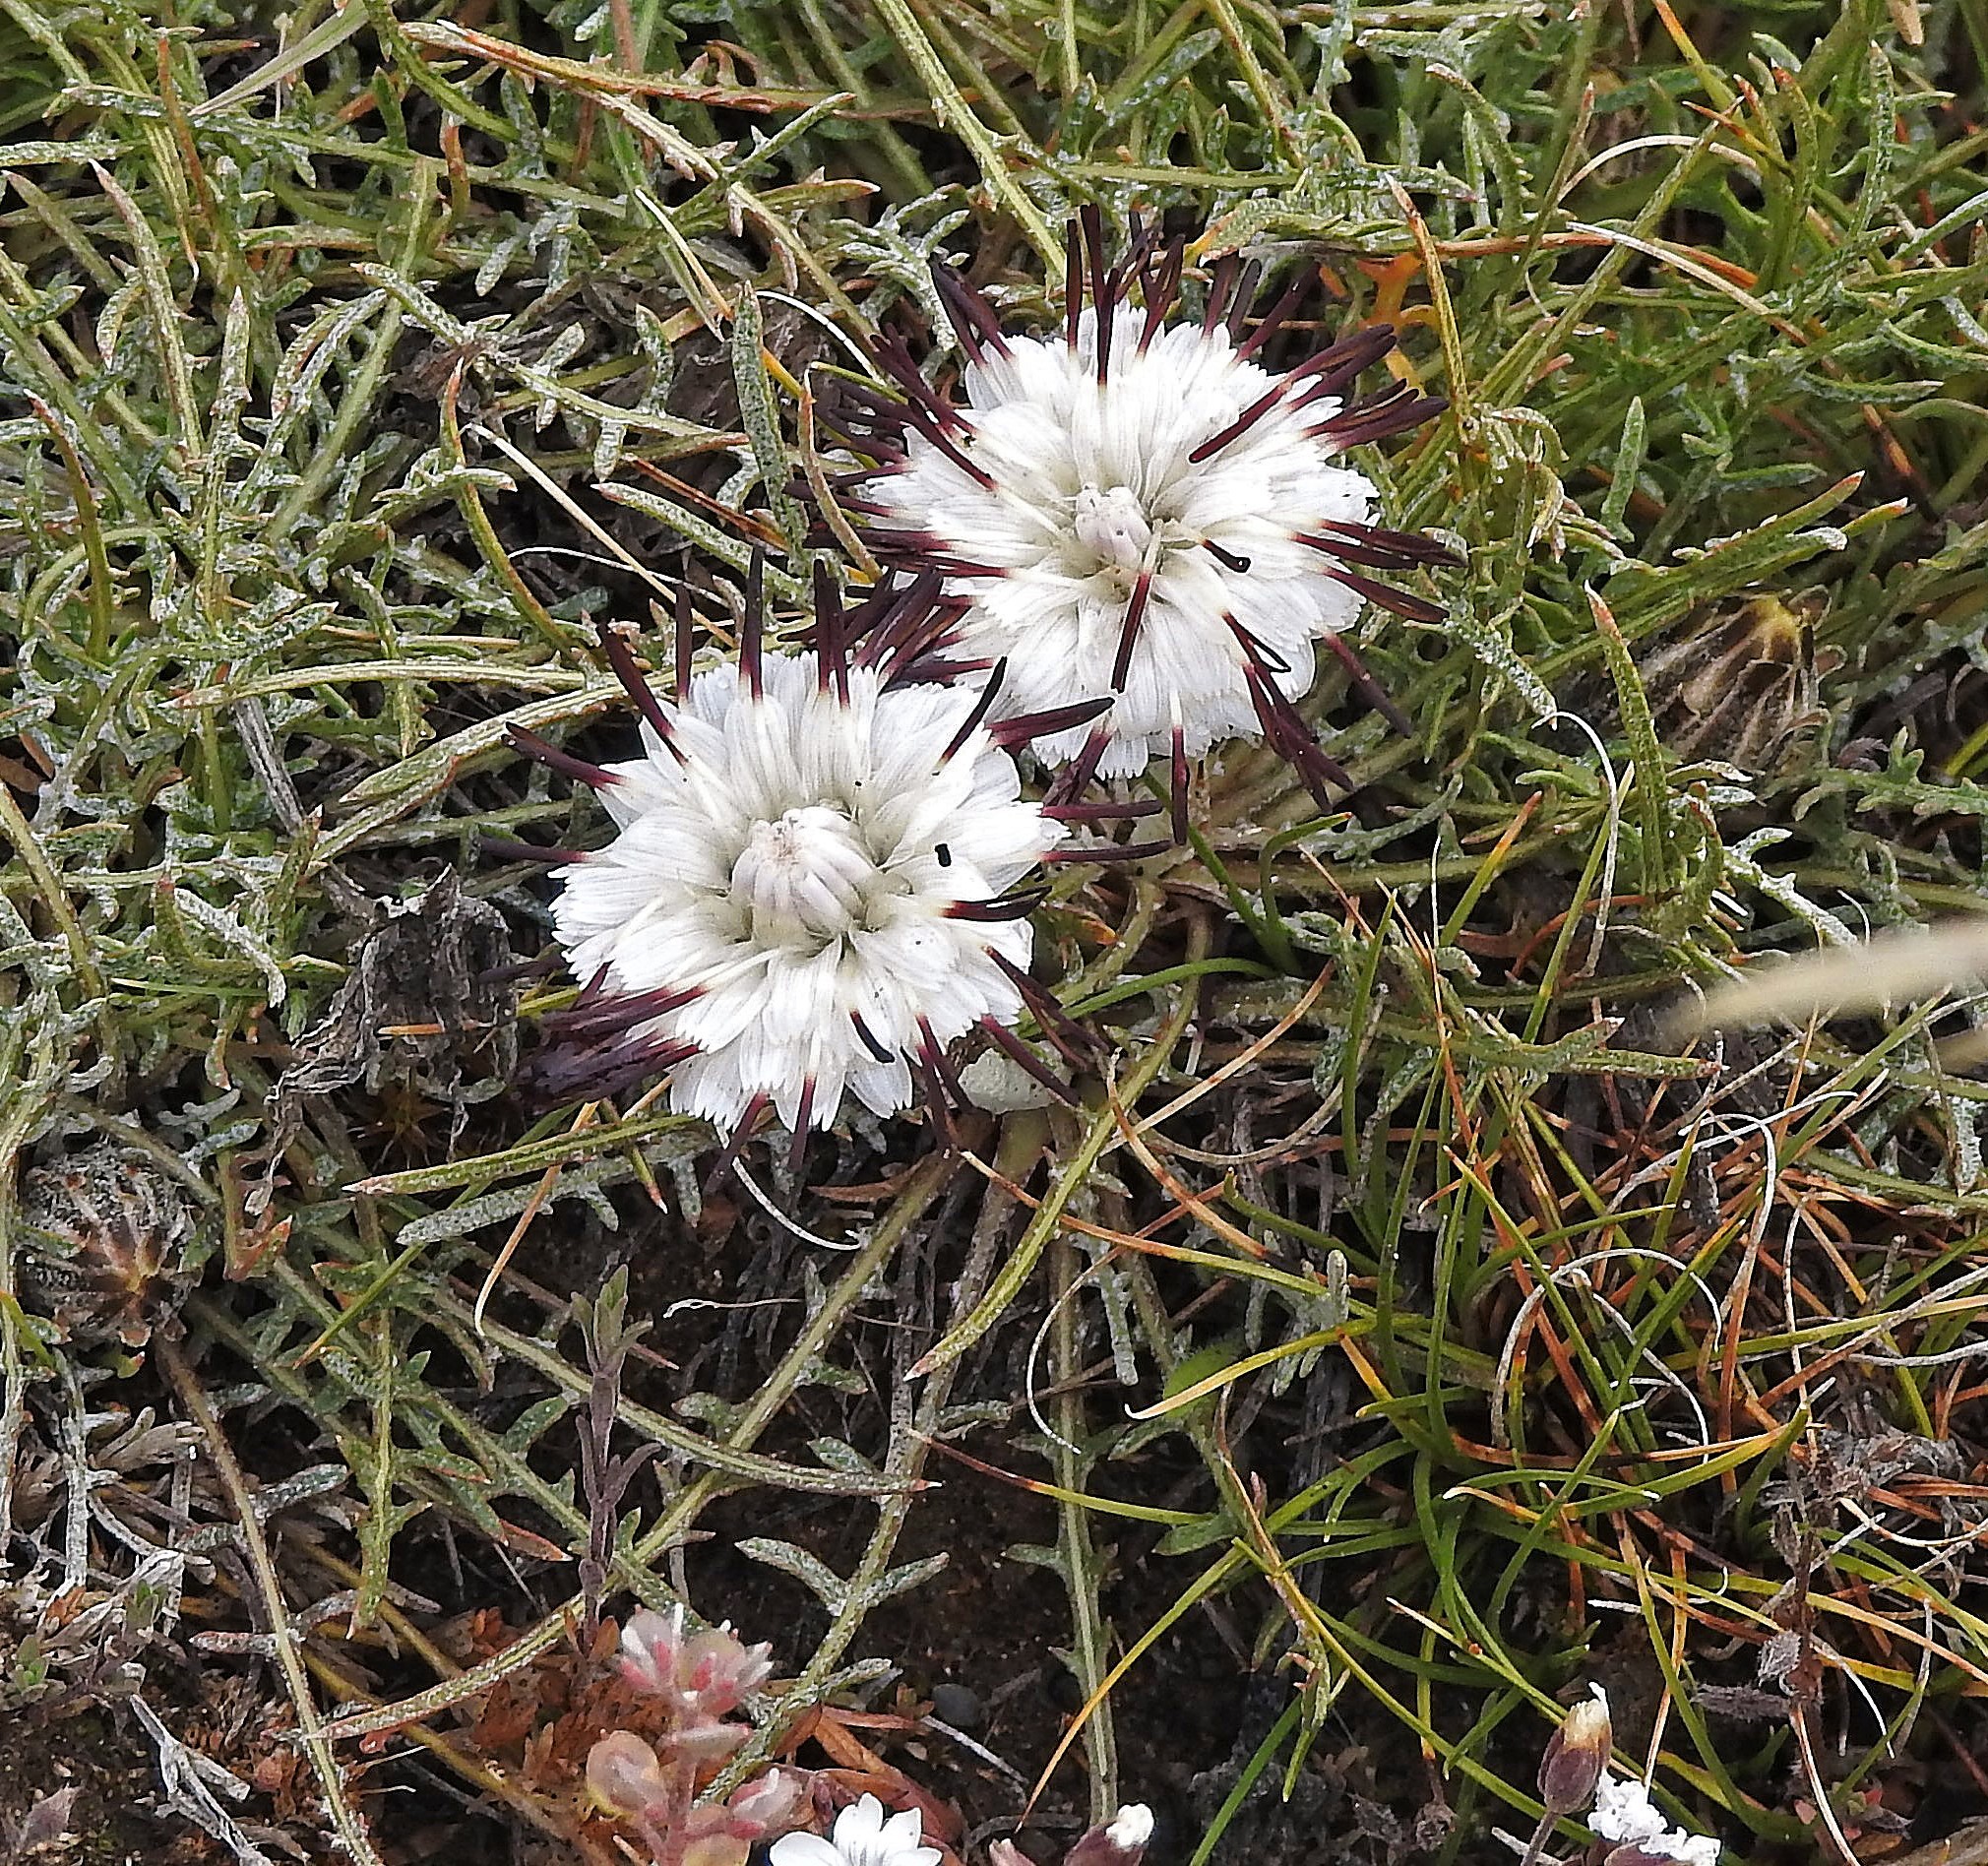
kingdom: Plantae
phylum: Tracheophyta
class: Magnoliopsida
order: Asterales
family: Asteraceae
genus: Hypochaeris
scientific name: Hypochaeris incana
